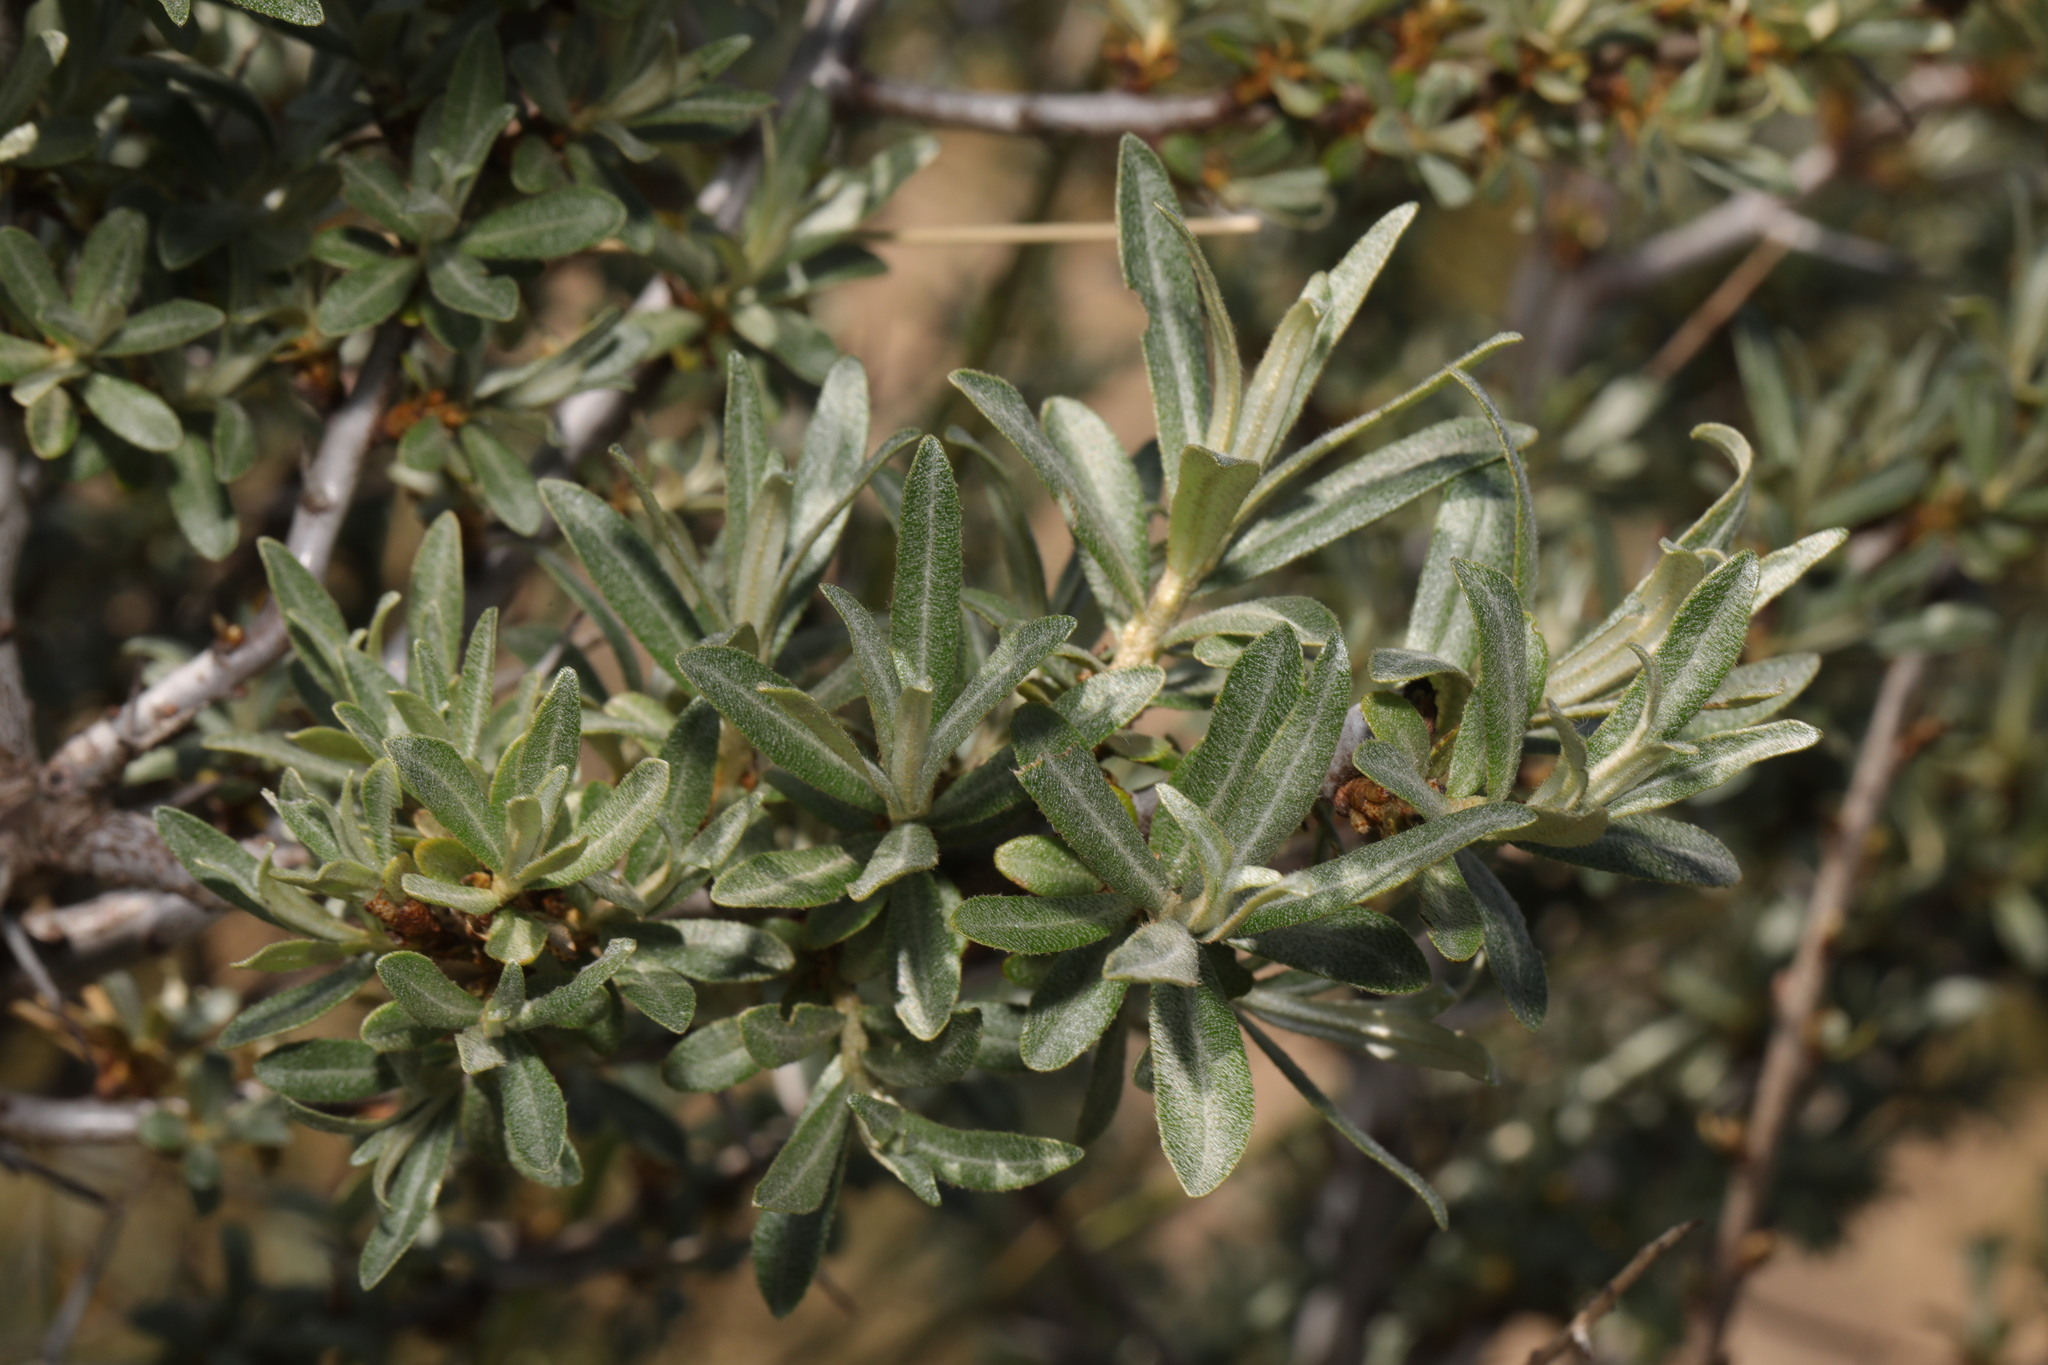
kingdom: Plantae
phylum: Tracheophyta
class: Magnoliopsida
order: Rosales
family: Elaeagnaceae
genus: Hippophae
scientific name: Hippophae rhamnoides
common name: Sea-buckthorn
